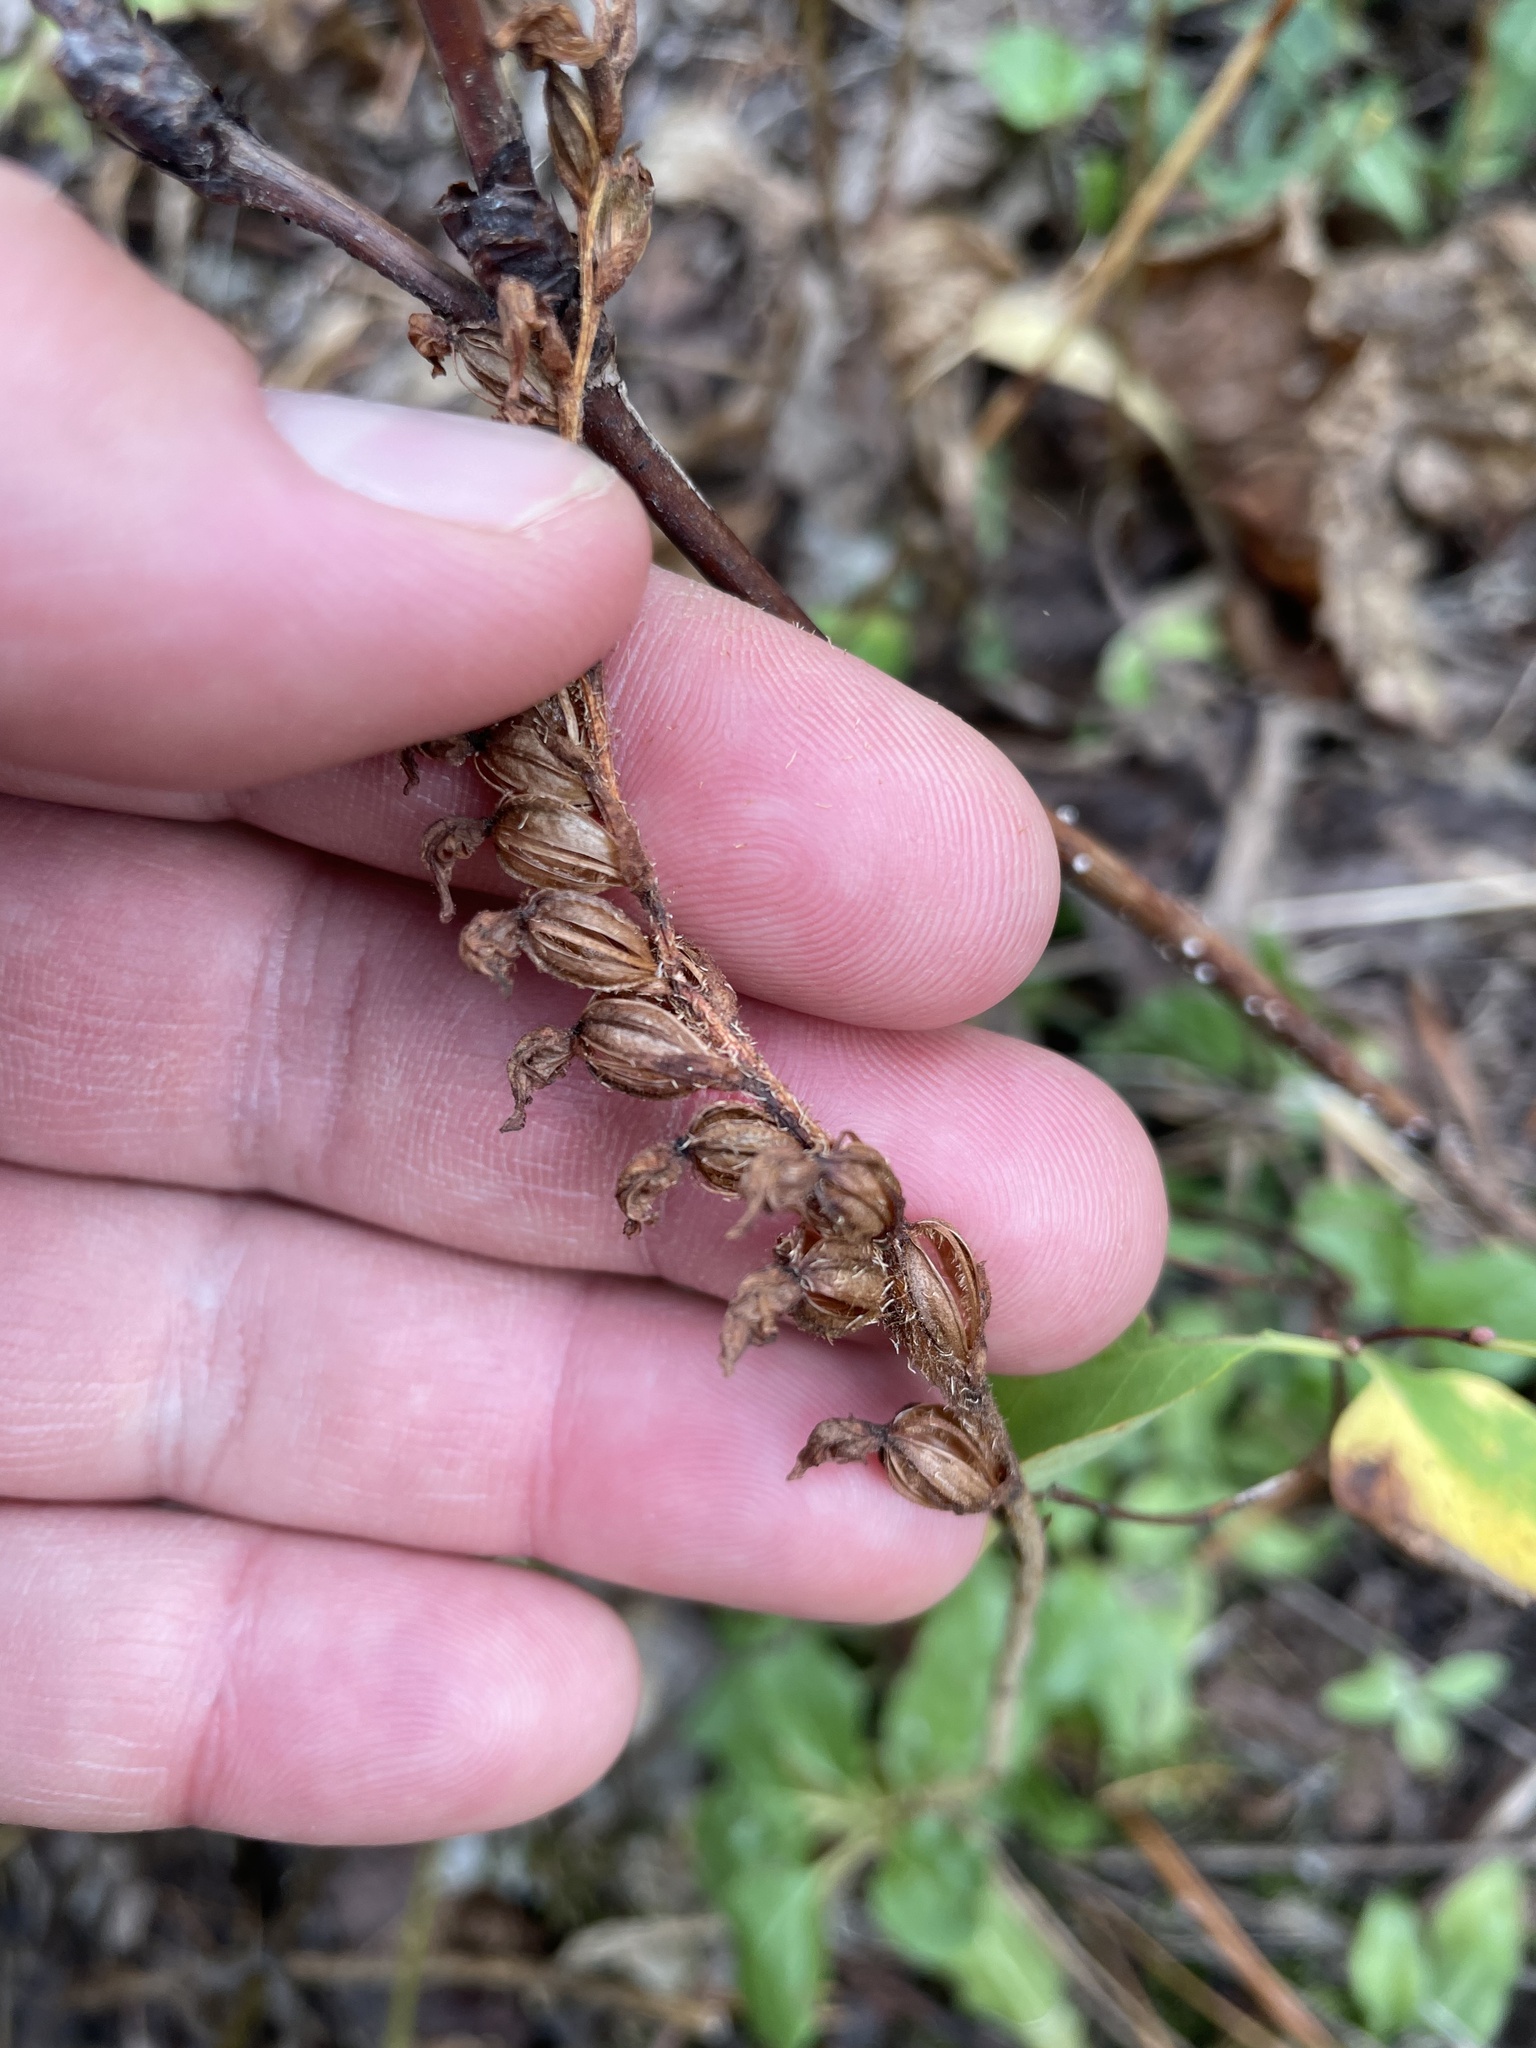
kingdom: Plantae
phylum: Tracheophyta
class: Liliopsida
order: Asparagales
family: Orchidaceae
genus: Goodyera
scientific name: Goodyera oblongifolia
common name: Giant rattlesnake-plantain
